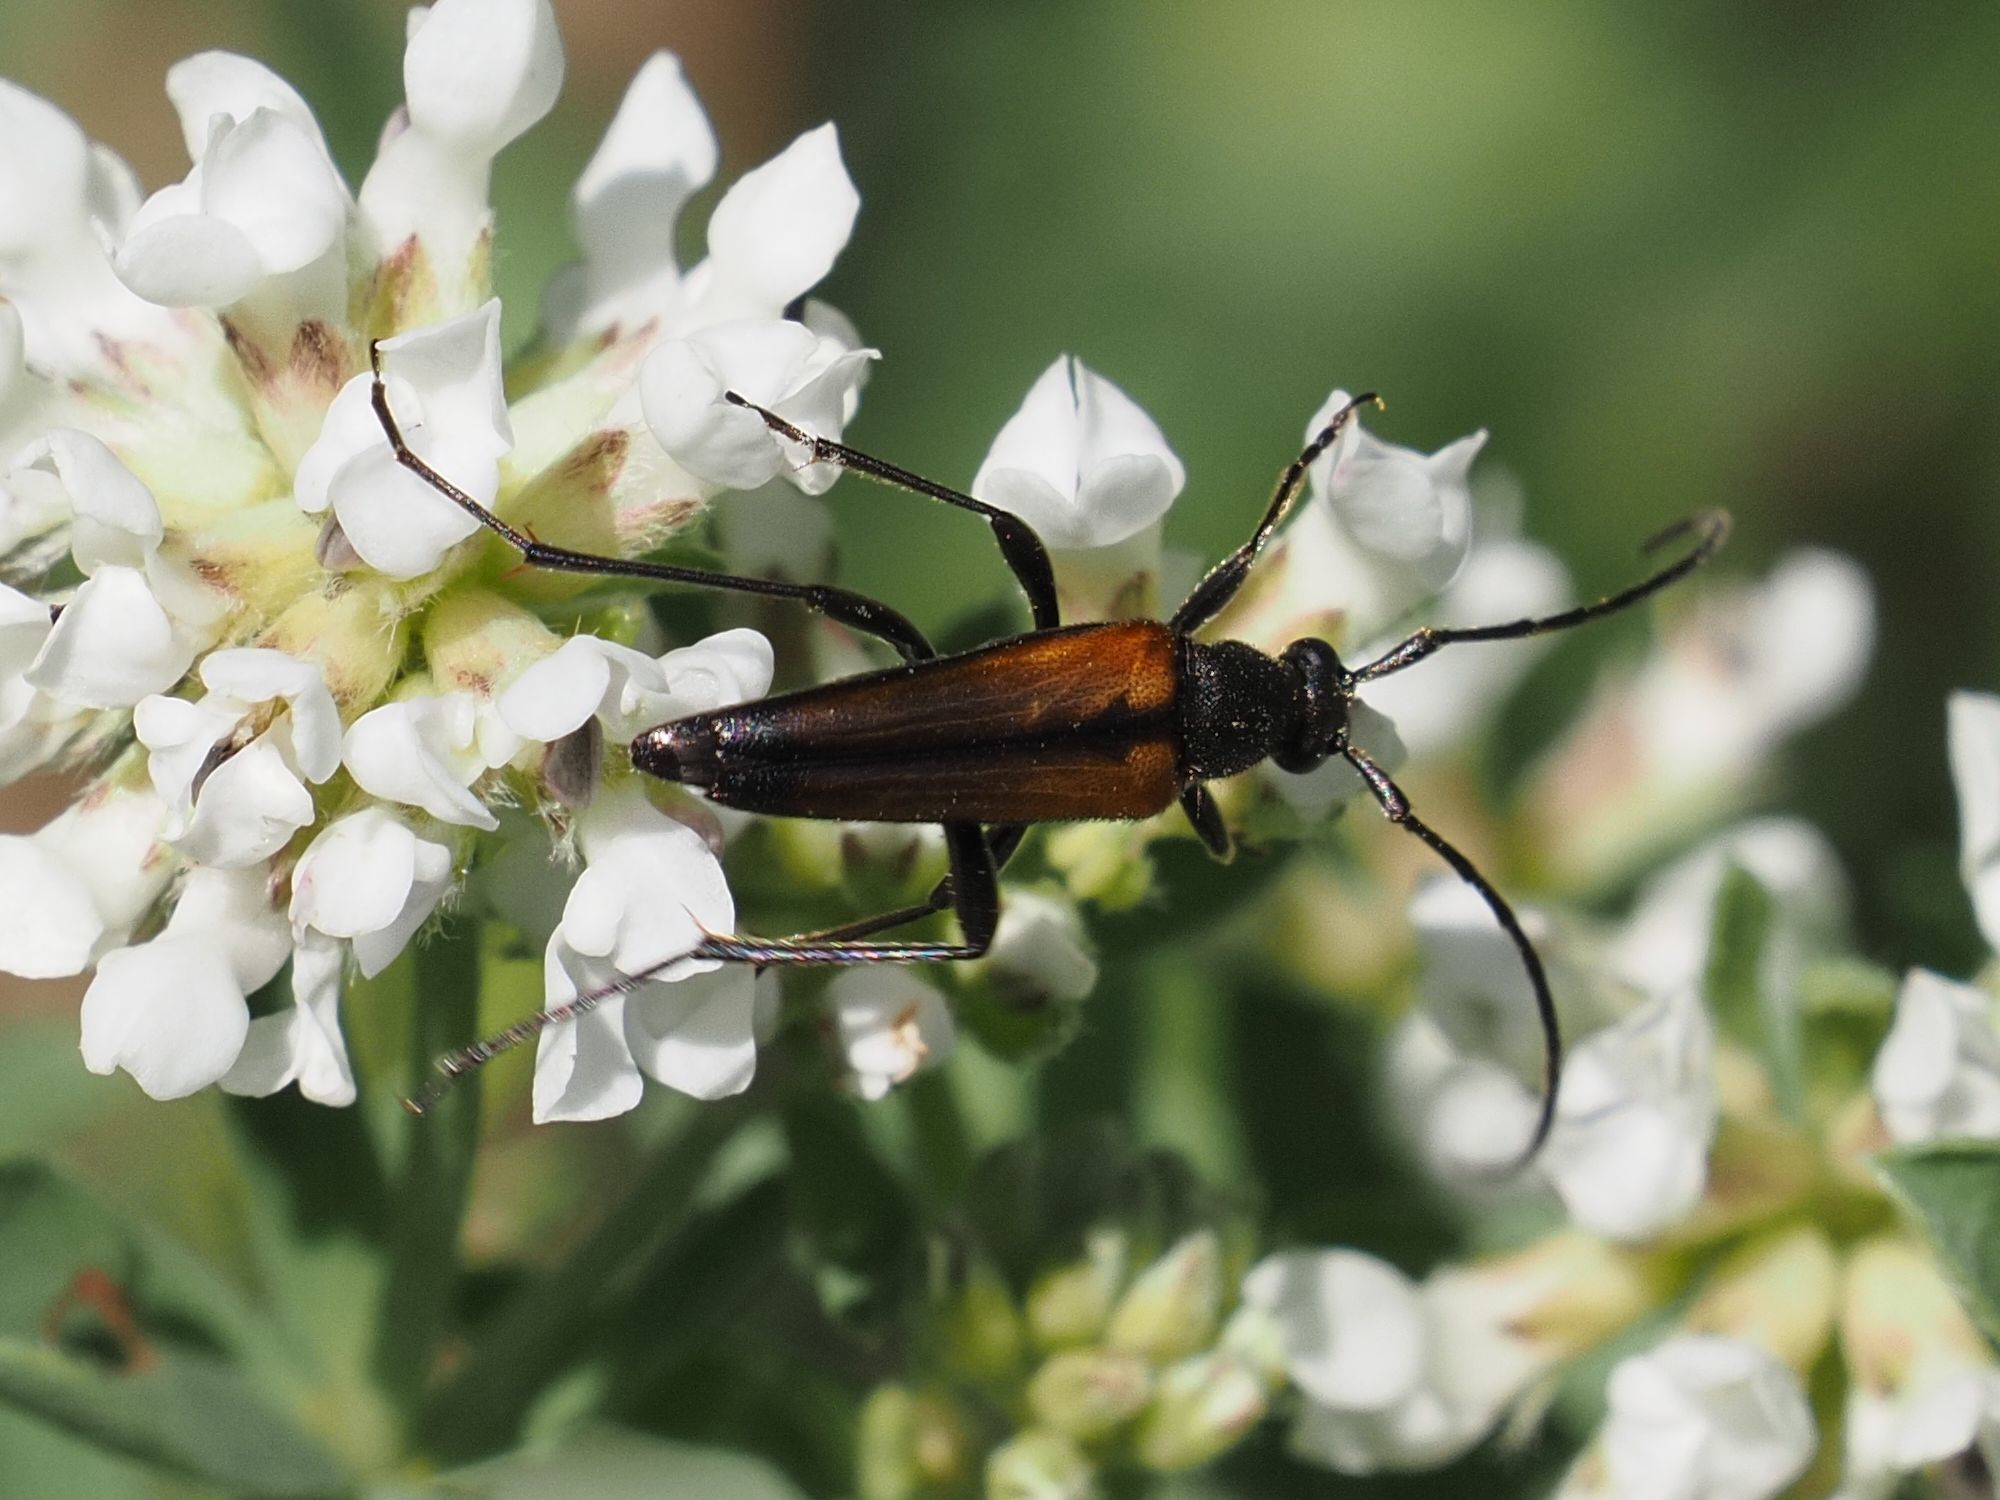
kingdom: Animalia
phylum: Arthropoda
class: Insecta
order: Coleoptera
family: Cerambycidae
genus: Stenurella
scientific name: Stenurella melanura
